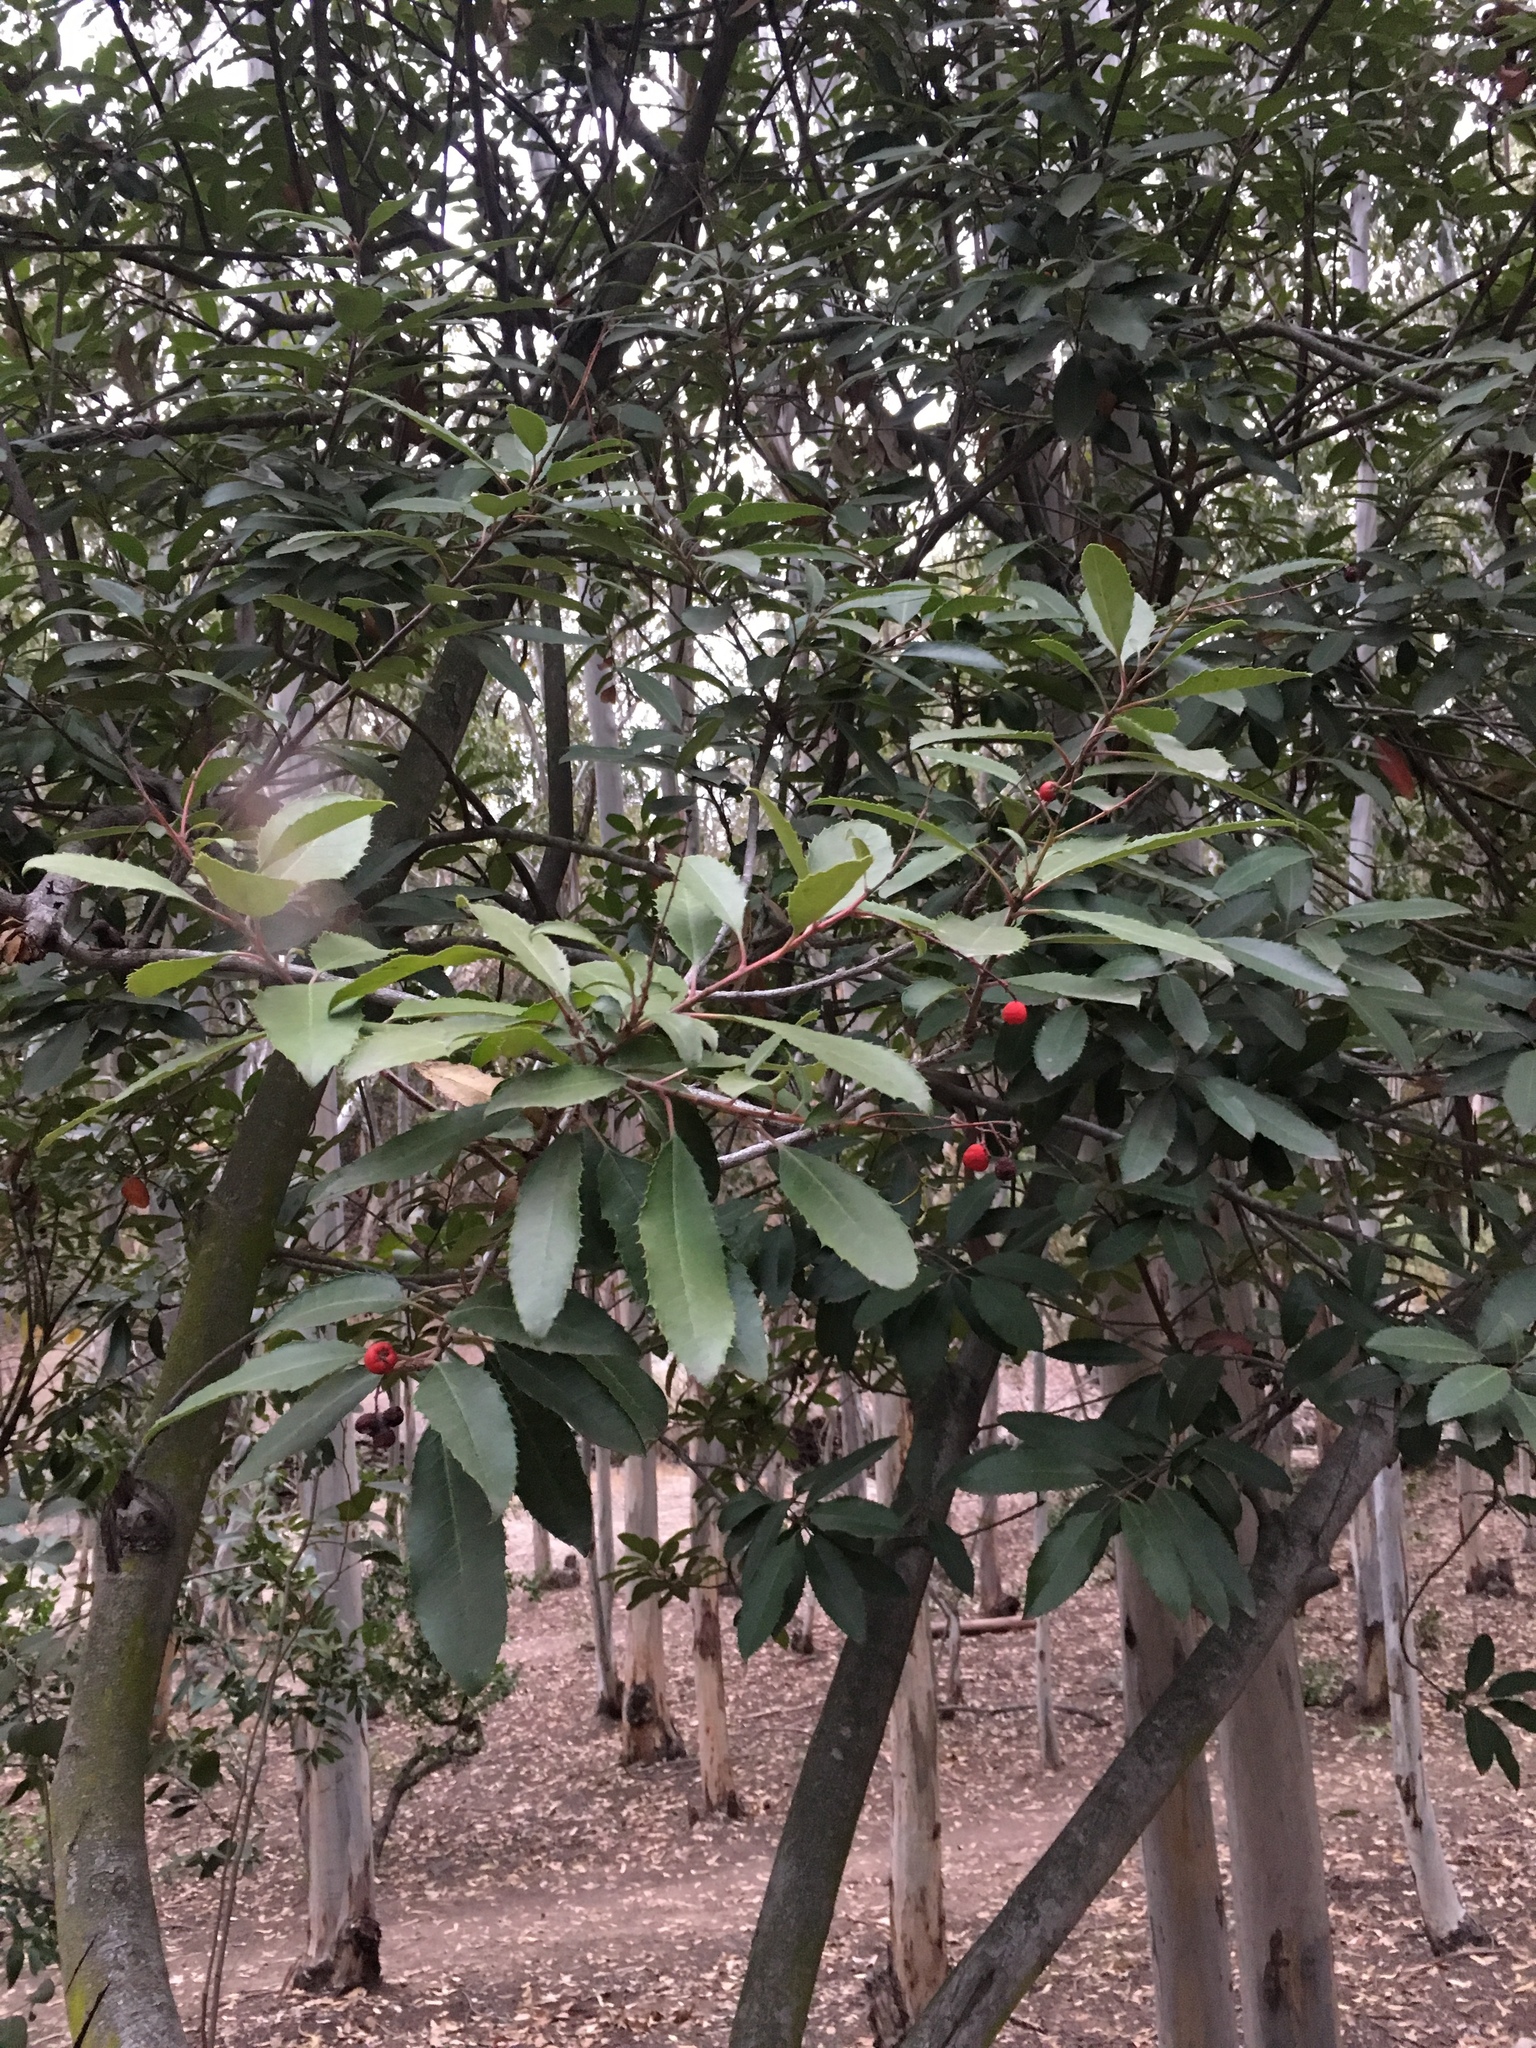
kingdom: Plantae
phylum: Tracheophyta
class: Magnoliopsida
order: Rosales
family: Rosaceae
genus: Heteromeles
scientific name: Heteromeles arbutifolia
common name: California-holly
